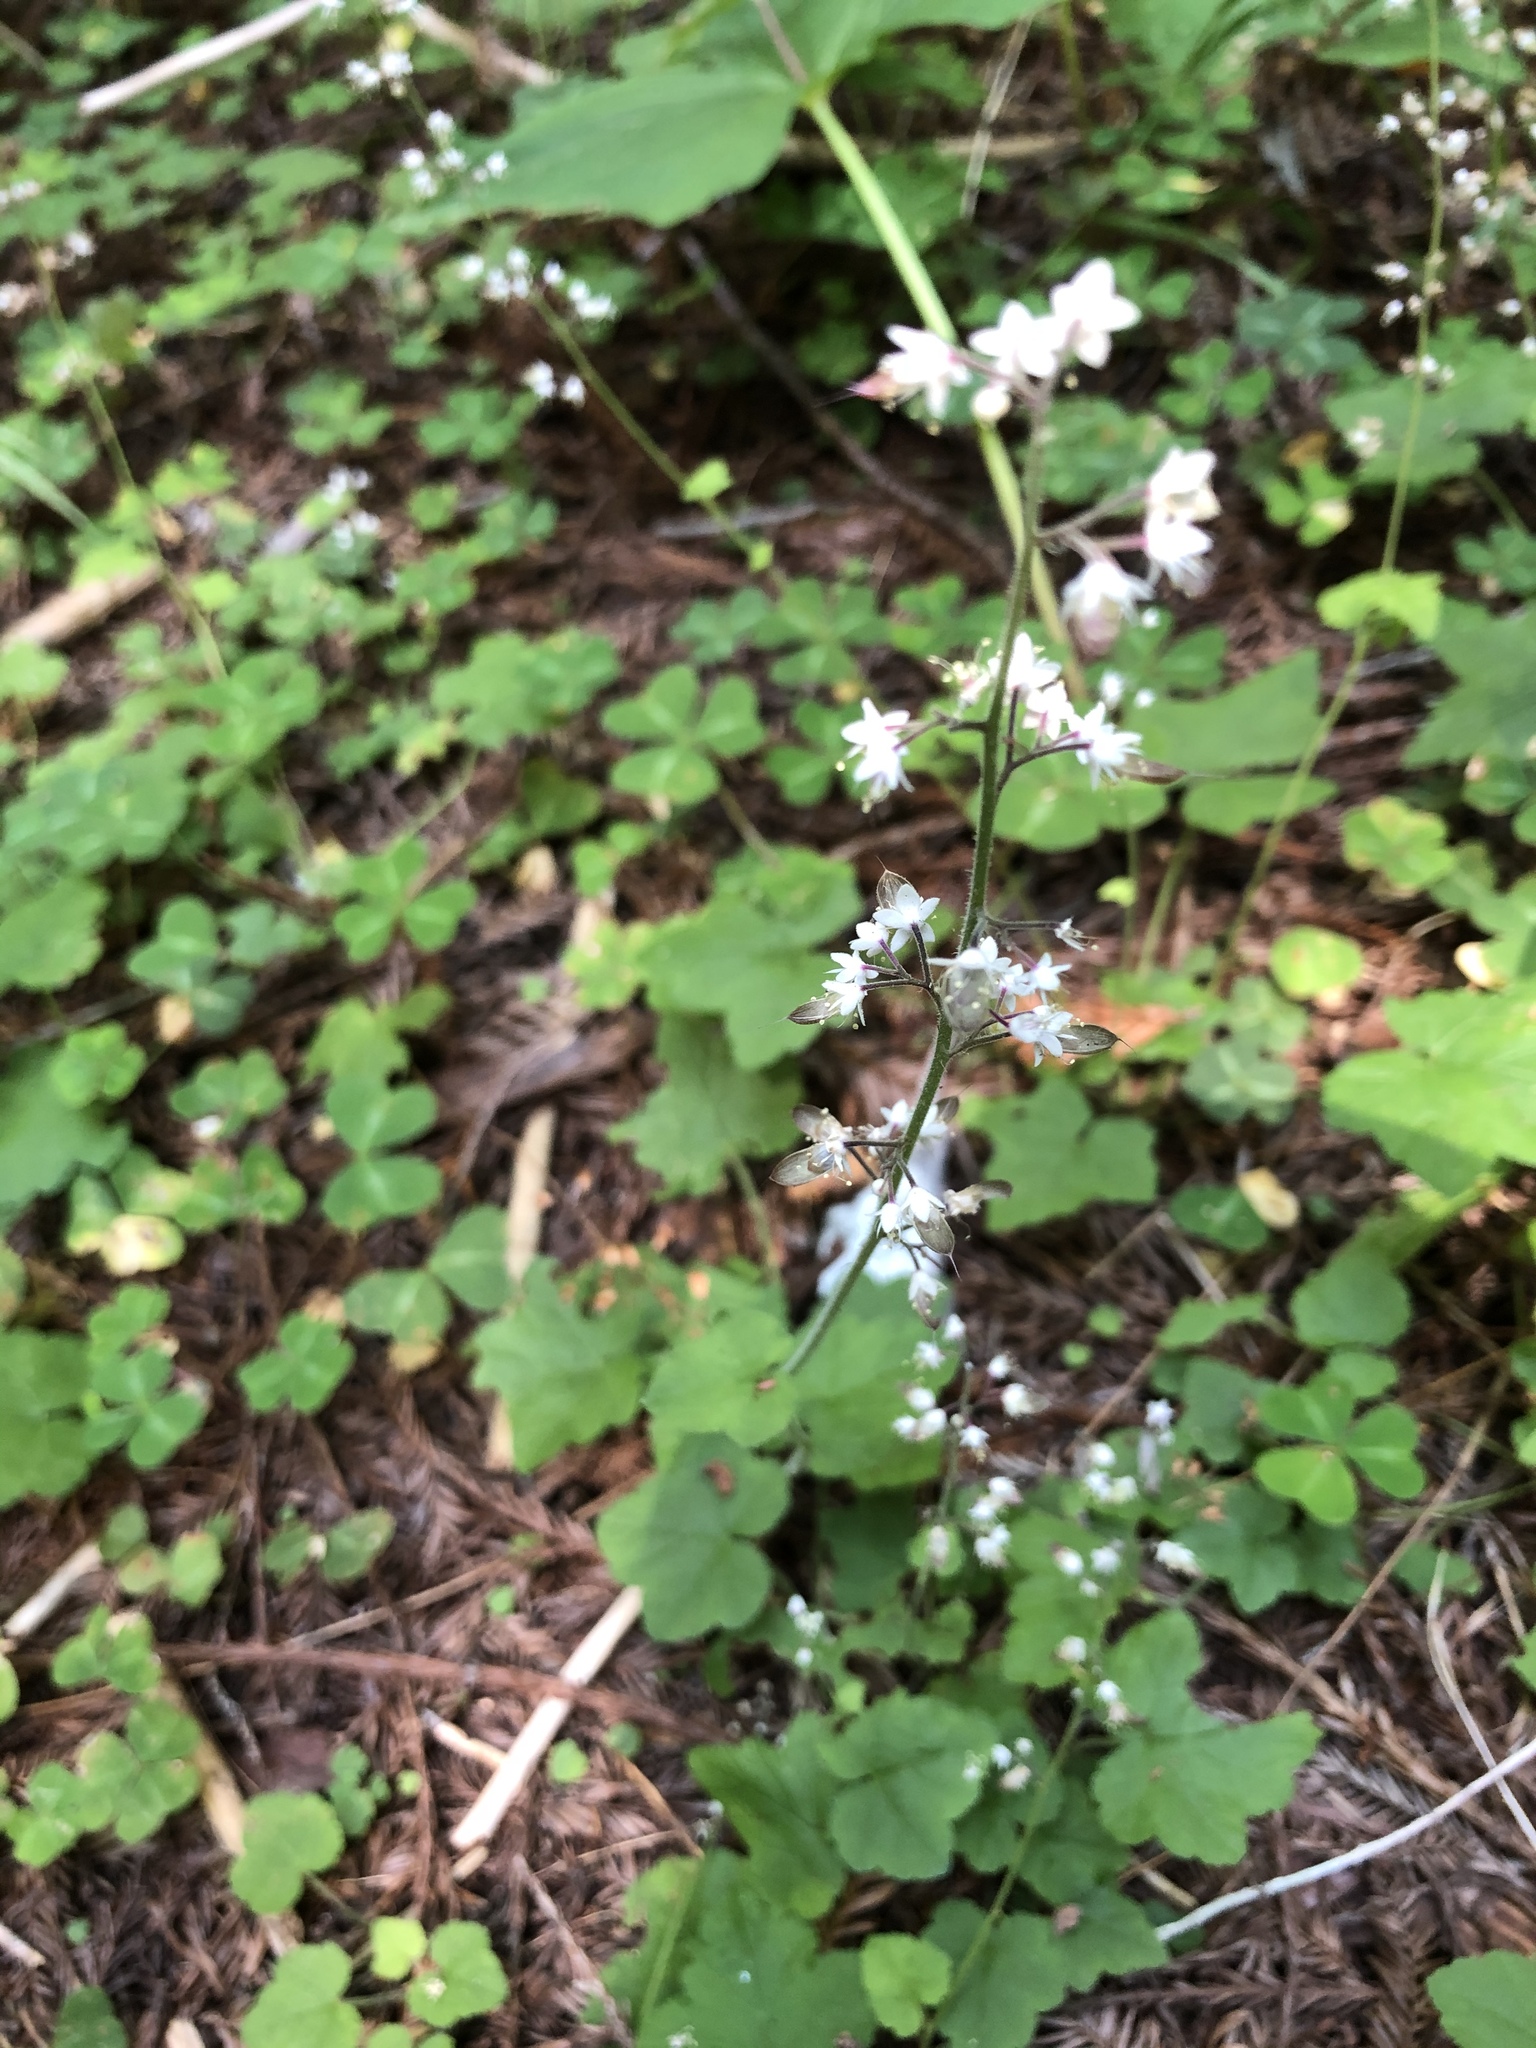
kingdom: Plantae
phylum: Tracheophyta
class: Magnoliopsida
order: Saxifragales
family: Saxifragaceae
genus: Tiarella
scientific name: Tiarella trifoliata
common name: Sugar-scoop
